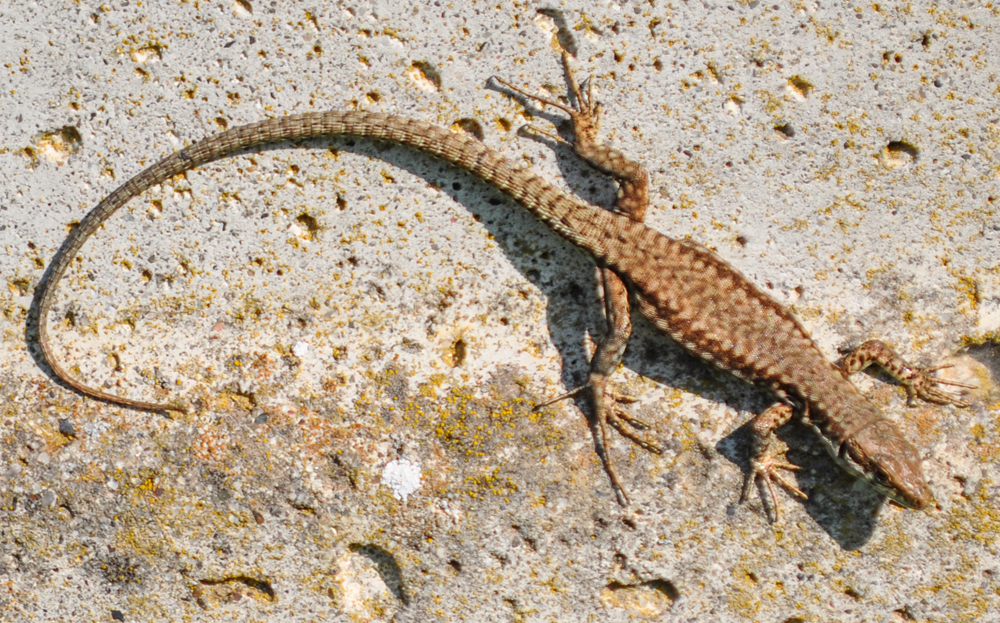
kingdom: Animalia
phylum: Chordata
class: Squamata
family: Lacertidae
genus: Podarcis
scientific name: Podarcis muralis
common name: Common wall lizard
